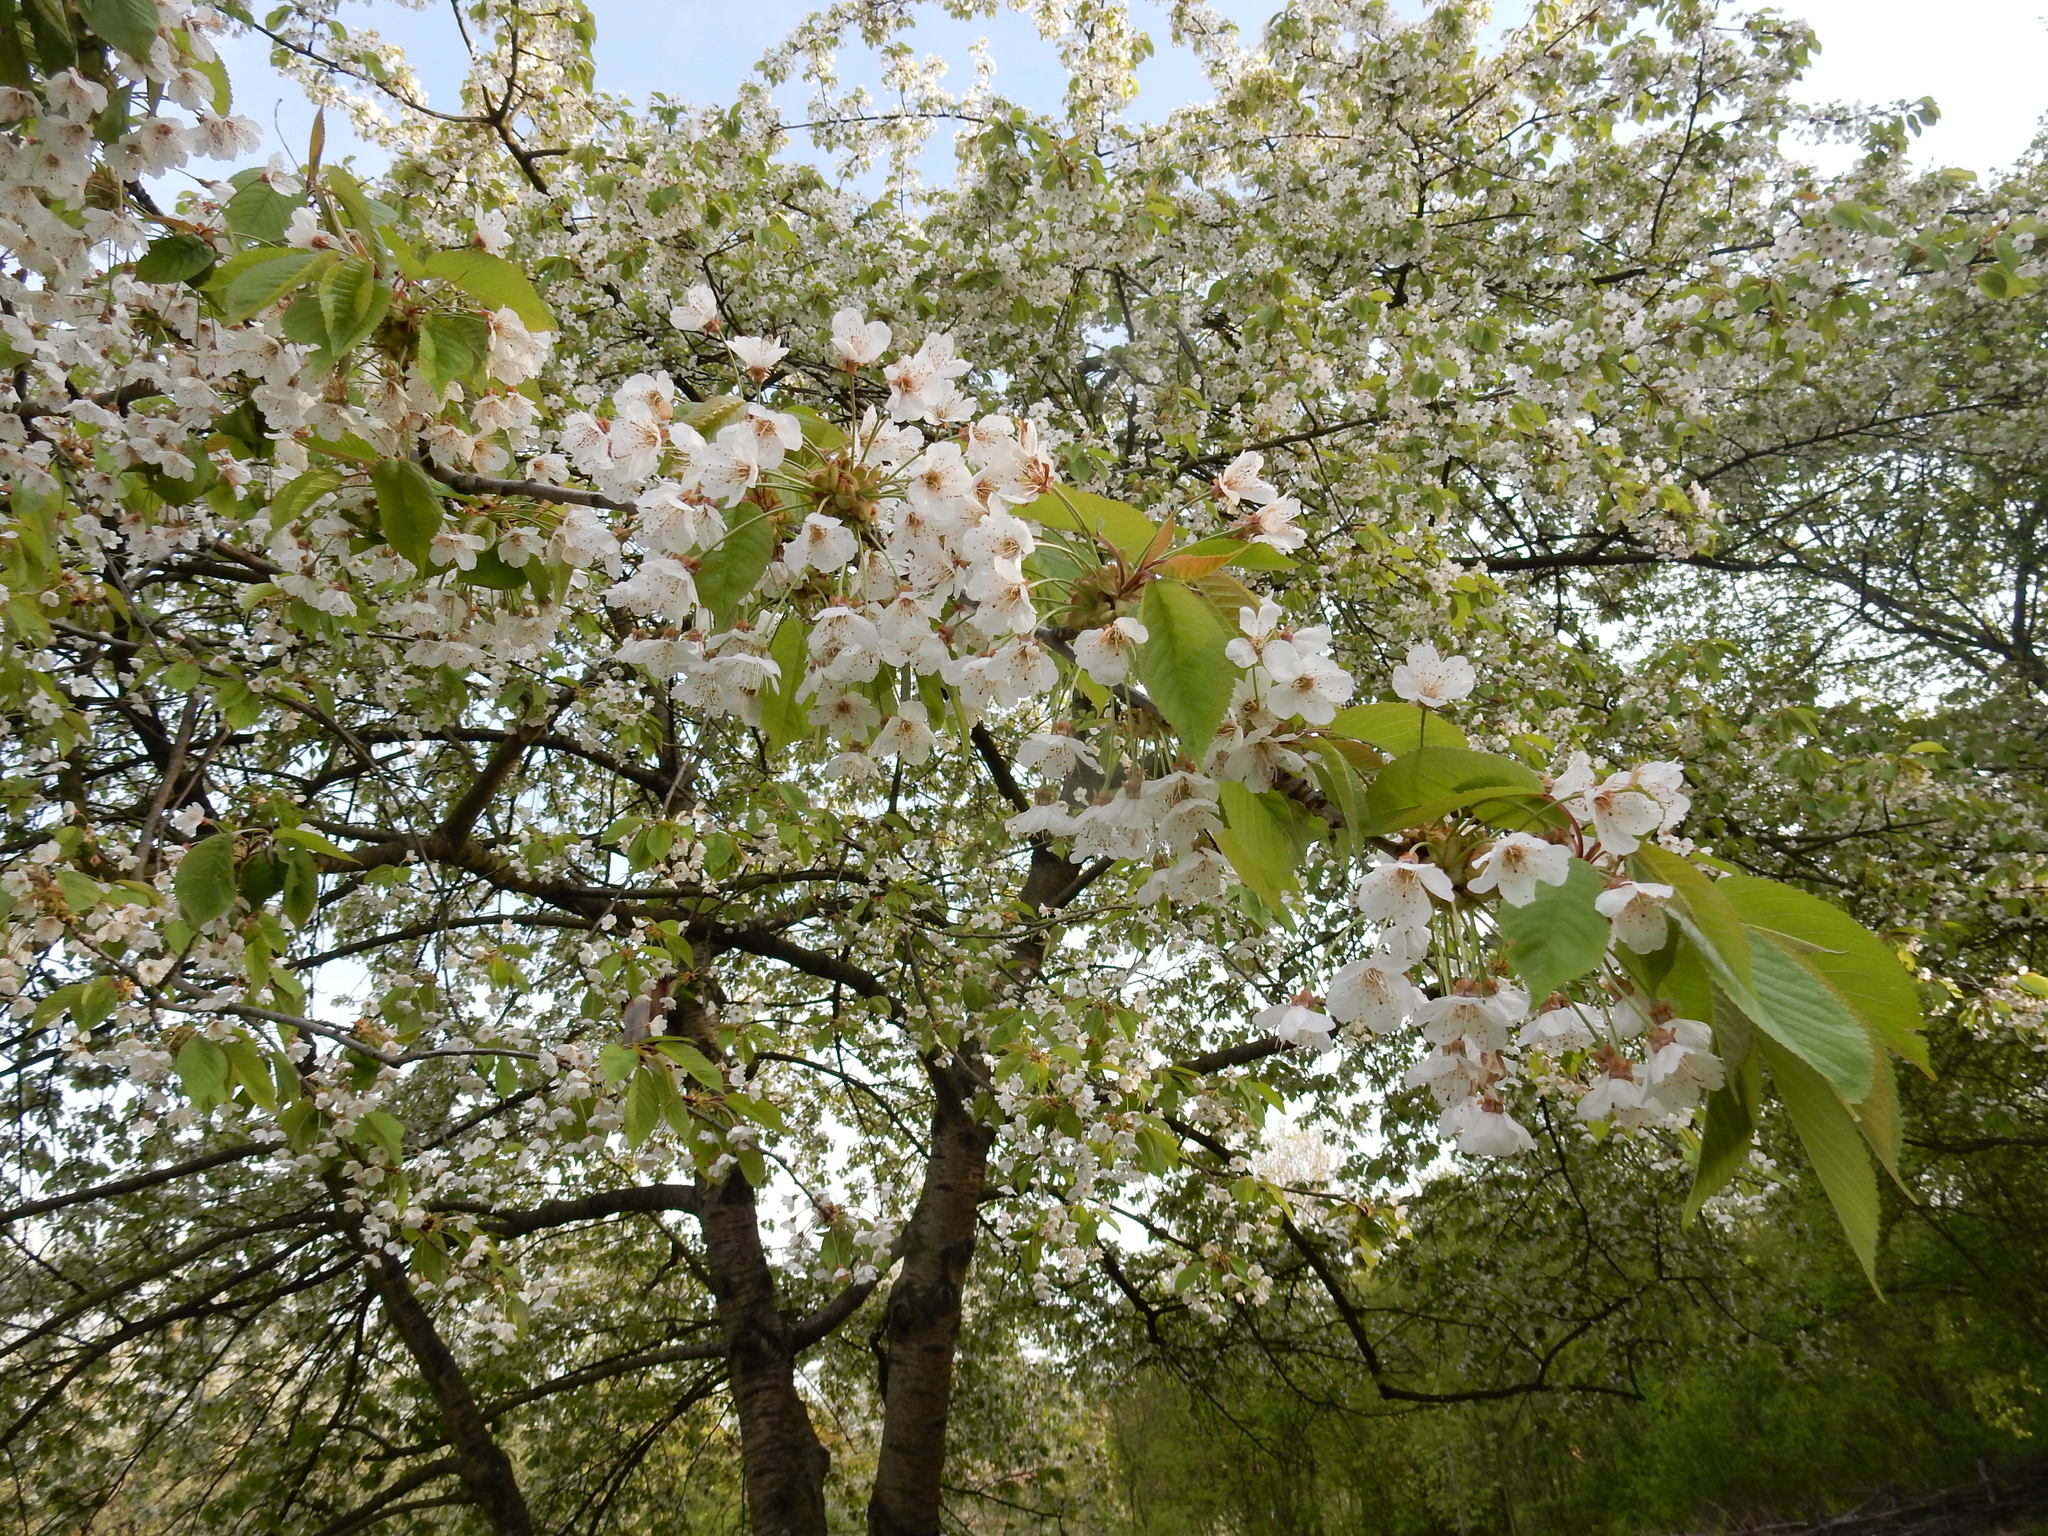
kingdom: Plantae
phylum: Tracheophyta
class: Magnoliopsida
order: Rosales
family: Rosaceae
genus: Prunus
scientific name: Prunus avium
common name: Sweet cherry
